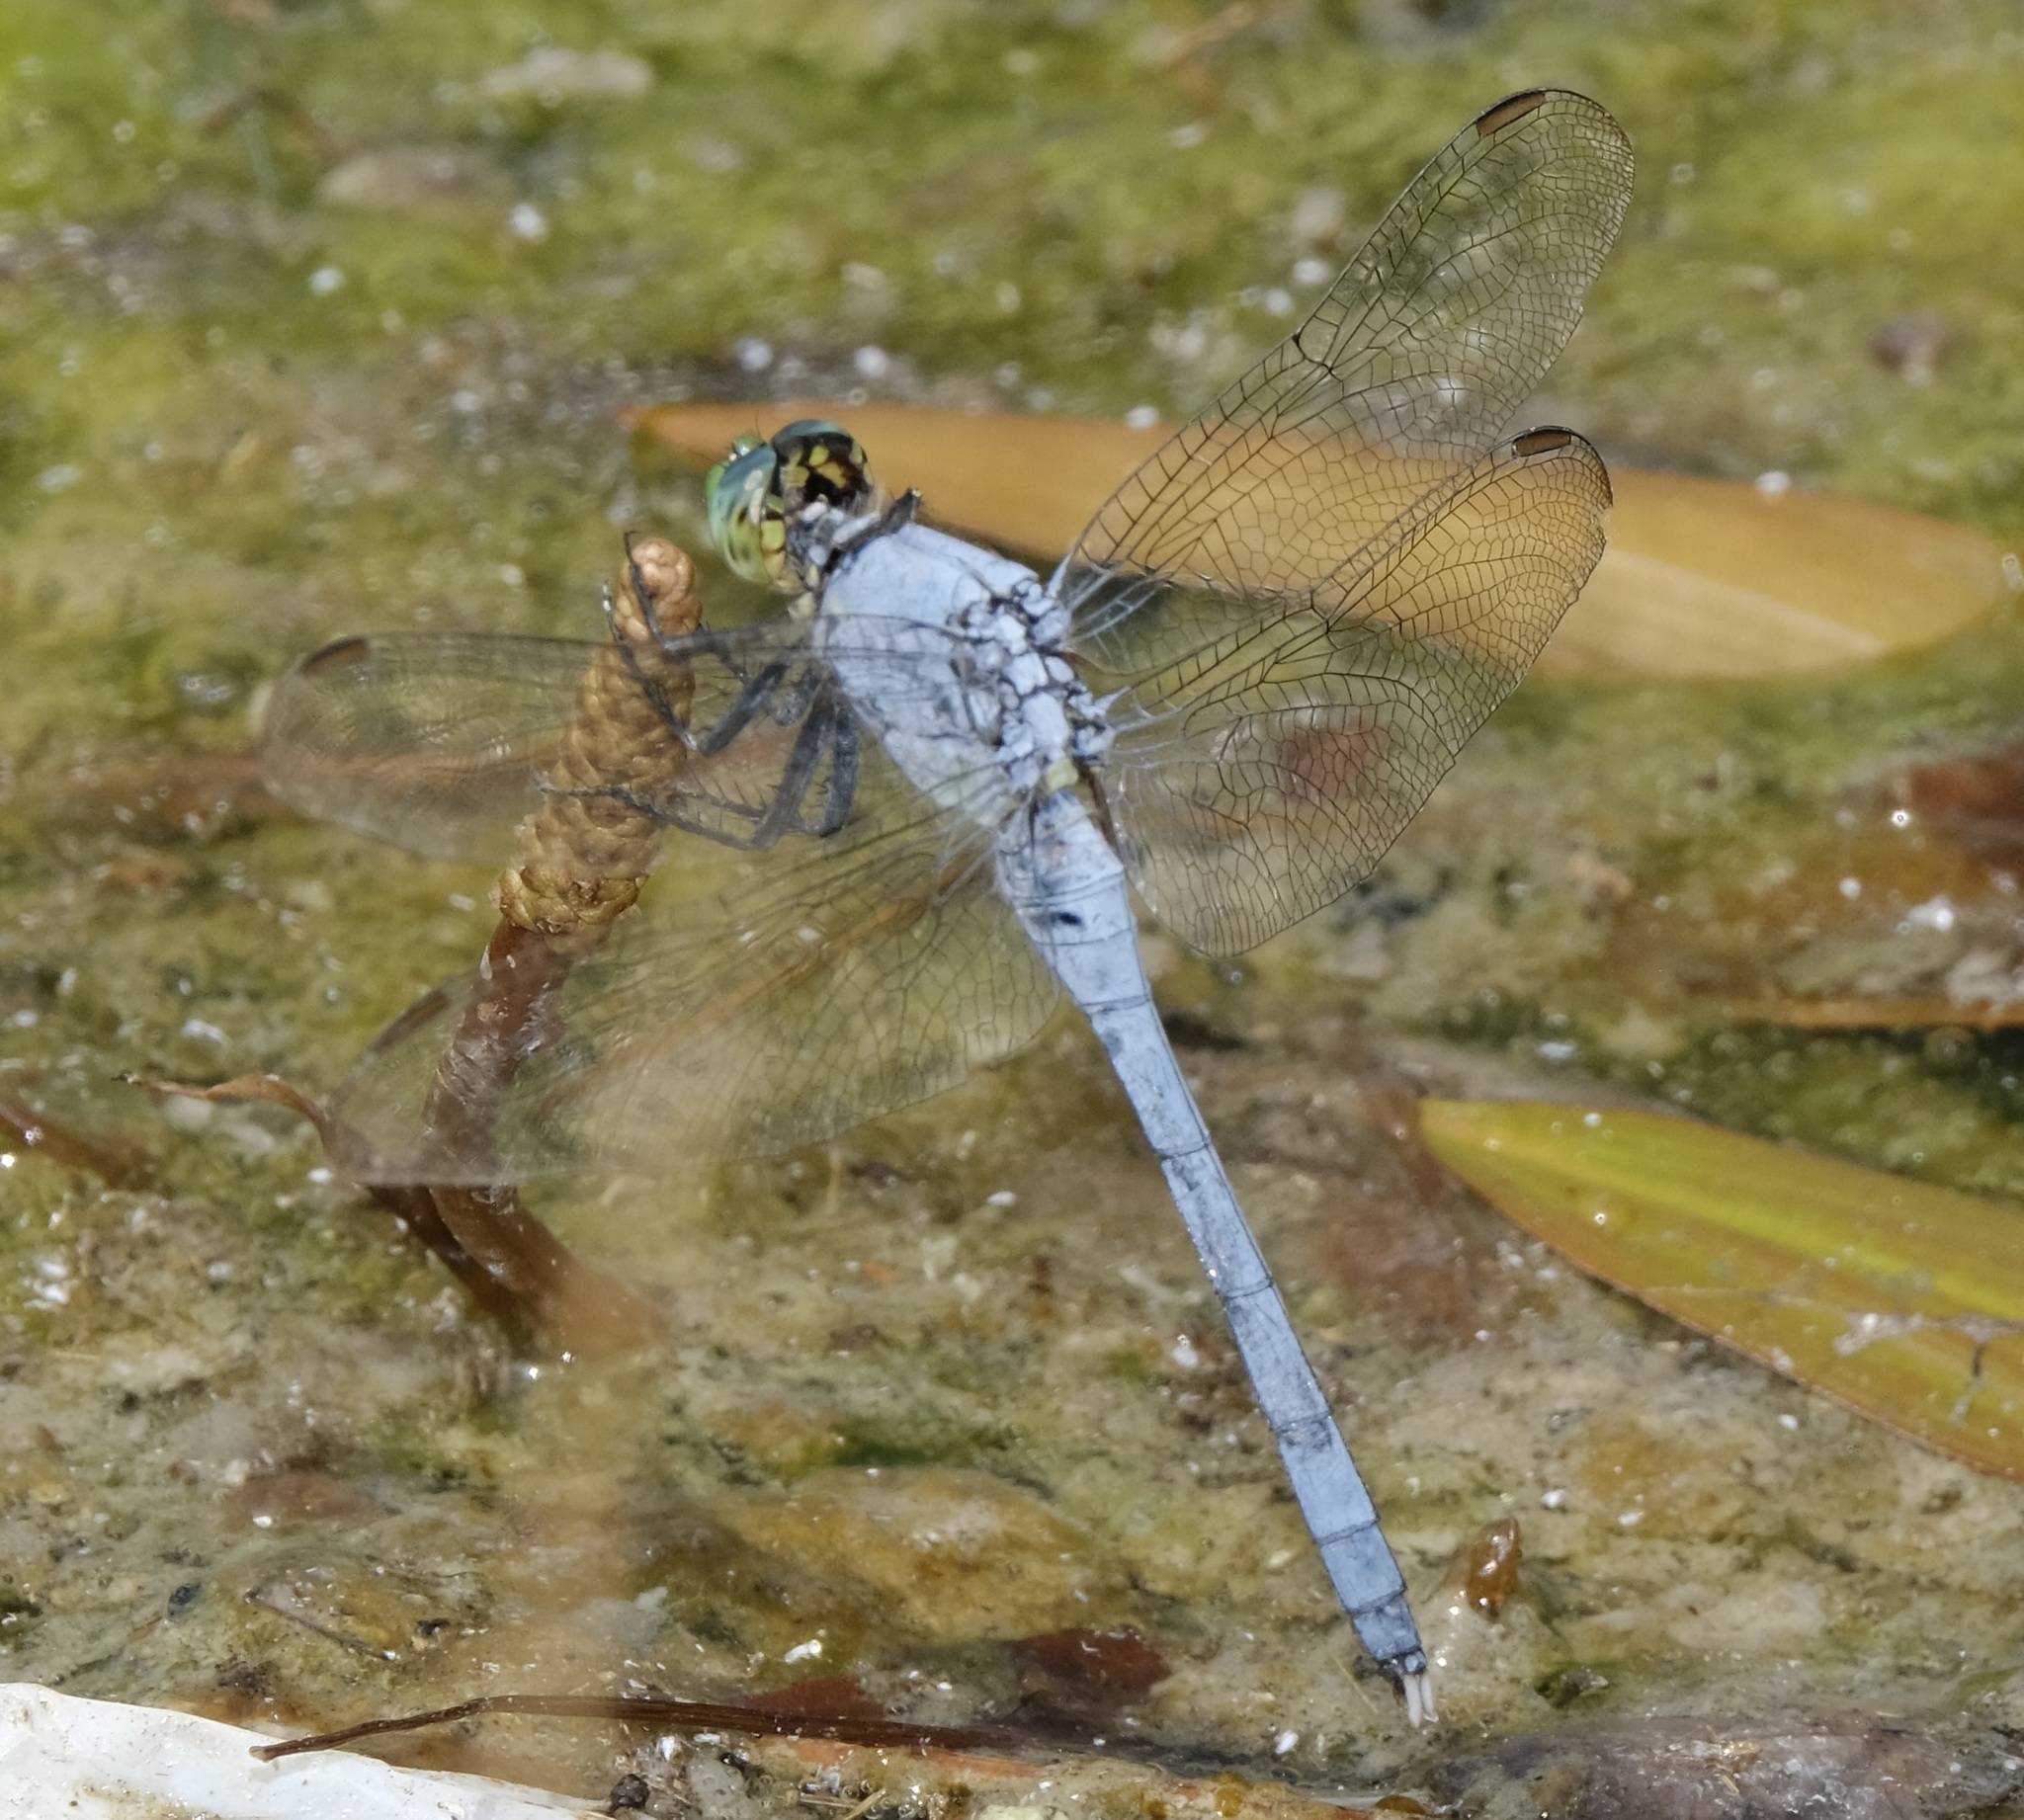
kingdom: Animalia
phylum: Arthropoda
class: Insecta
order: Odonata
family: Libellulidae
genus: Erythemis
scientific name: Erythemis simplicicollis
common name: Eastern pondhawk
